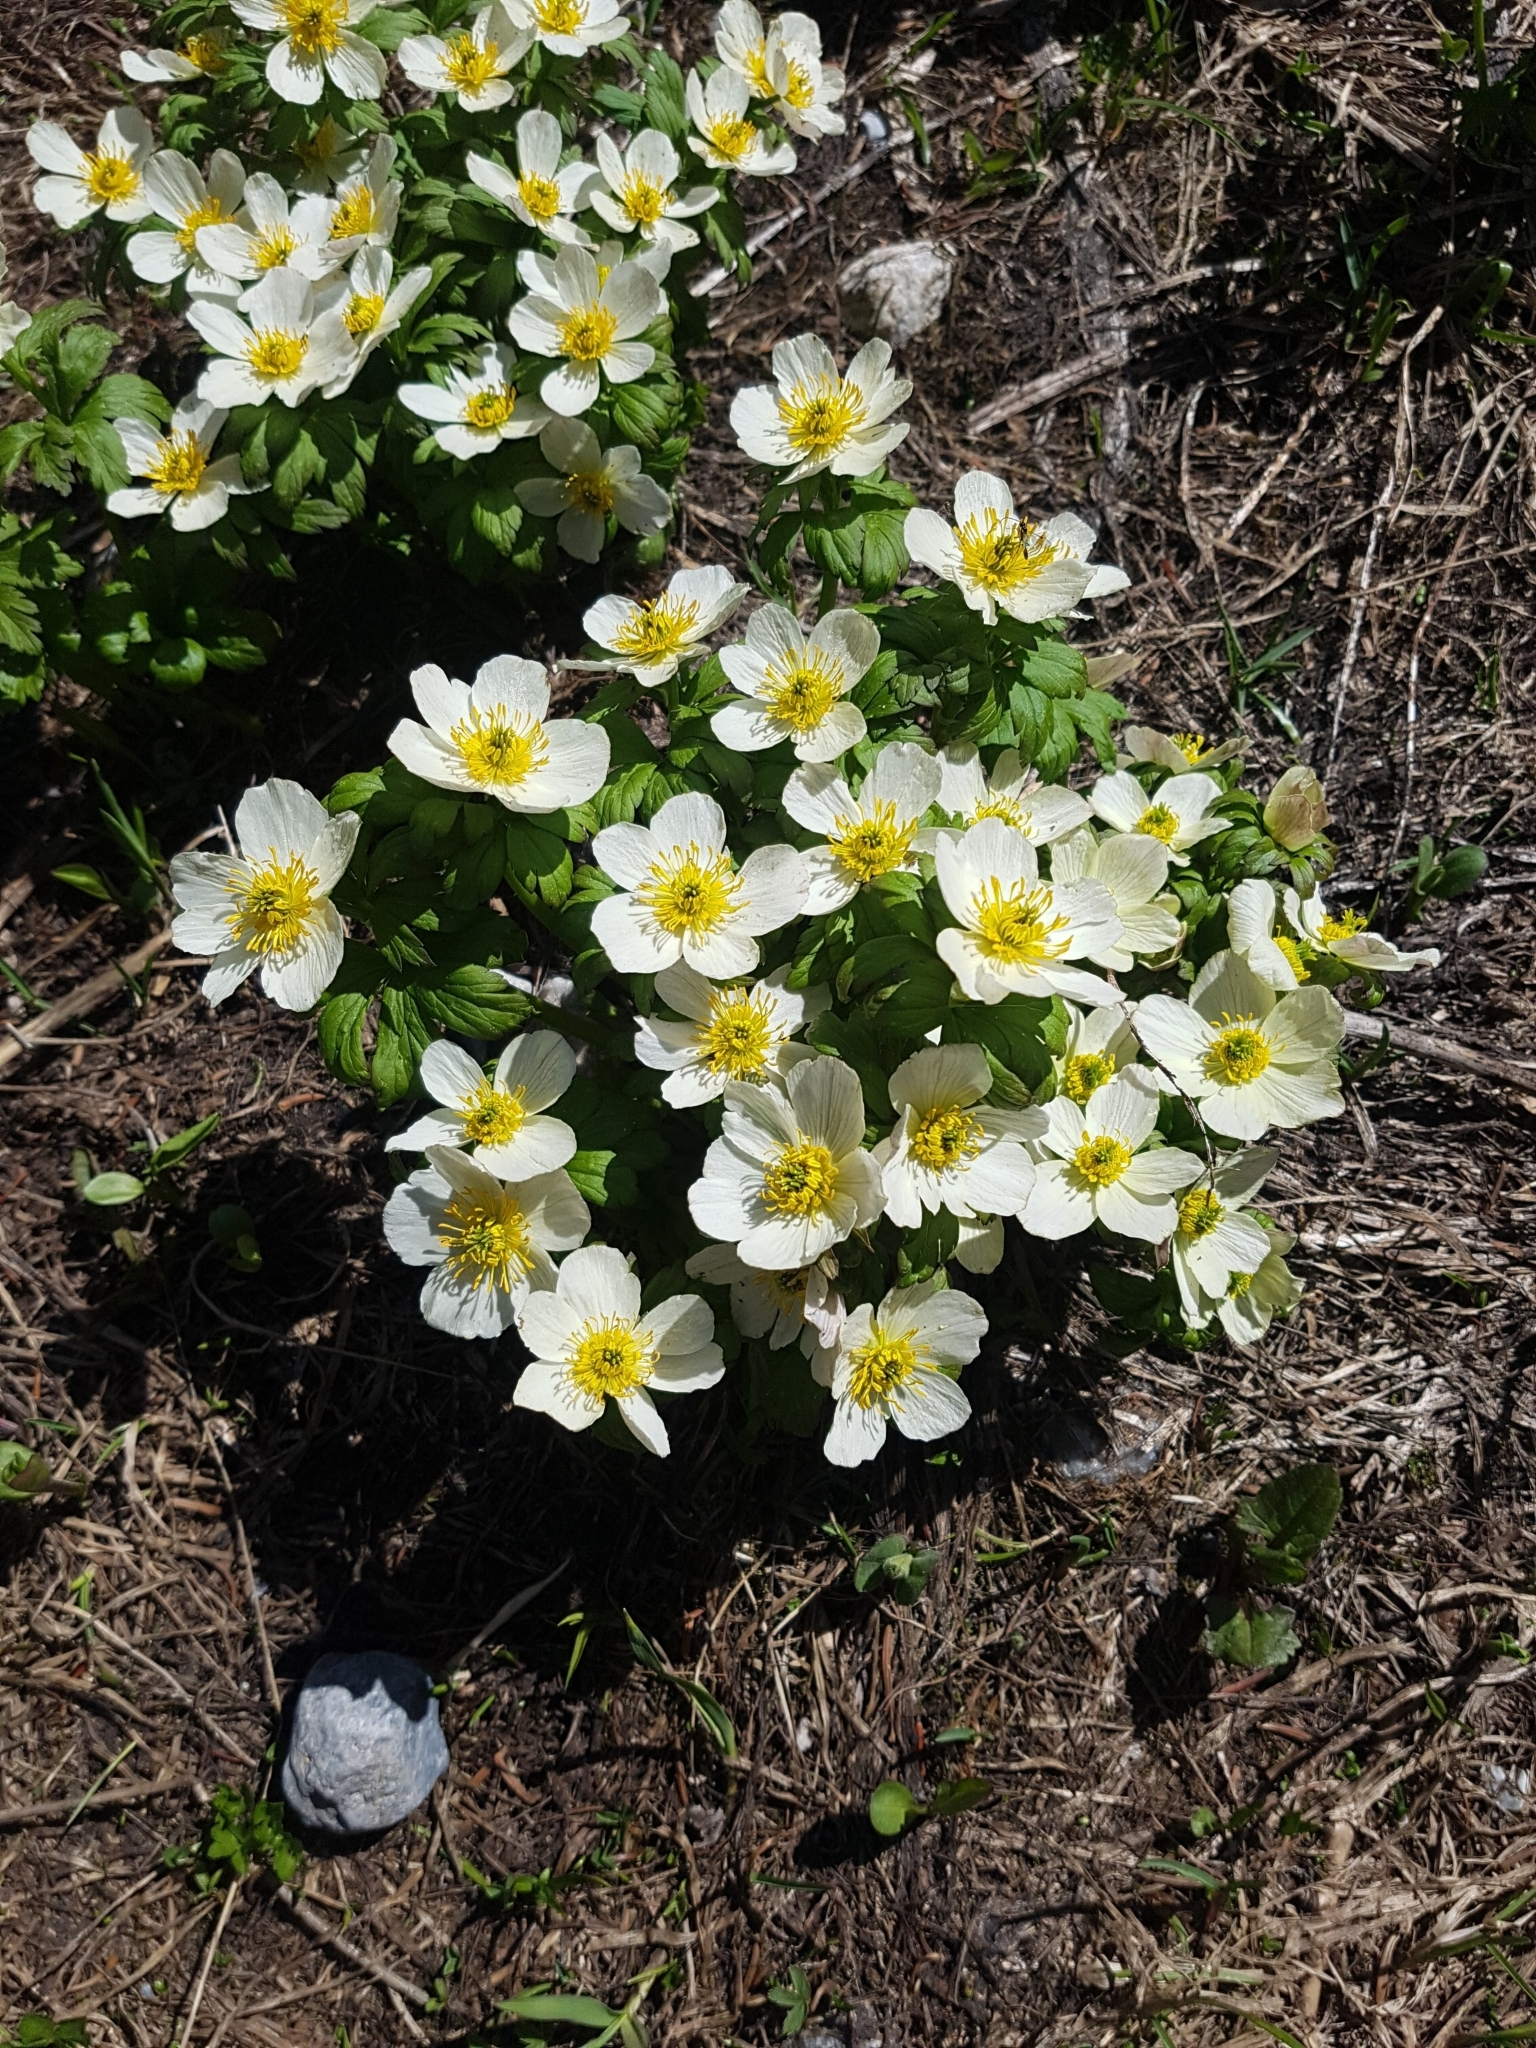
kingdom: Plantae
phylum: Tracheophyta
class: Magnoliopsida
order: Ranunculales
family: Ranunculaceae
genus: Trollius
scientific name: Trollius laxus
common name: American globeflower
